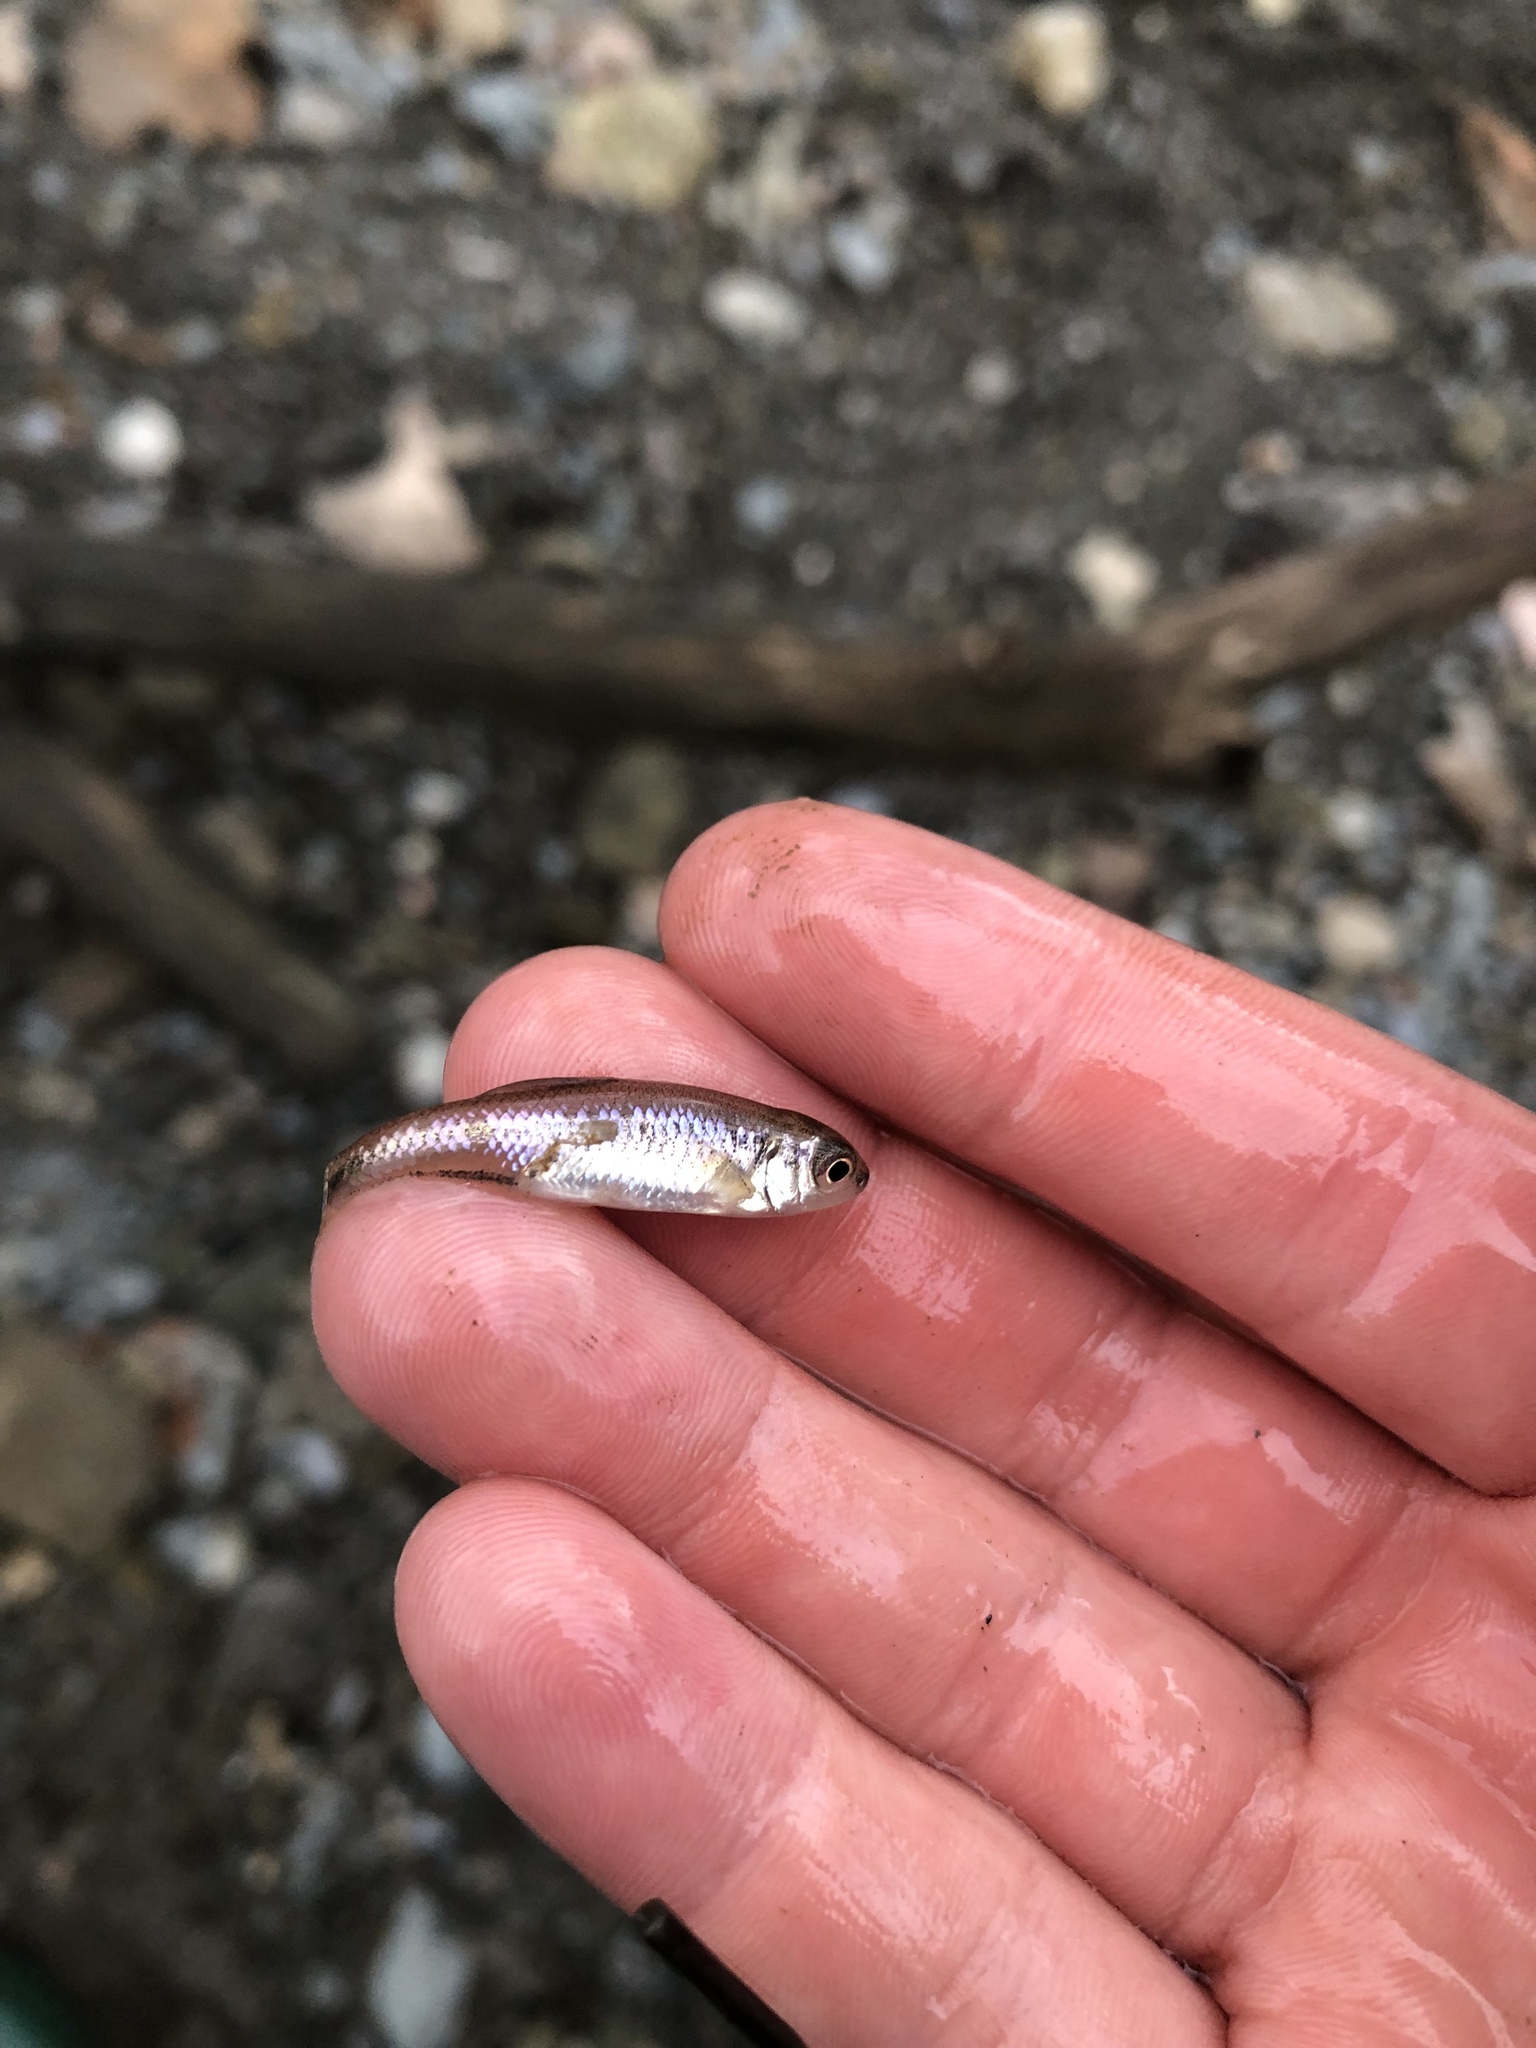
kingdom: Animalia
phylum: Chordata
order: Cypriniformes
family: Cyprinidae
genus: Luxilus
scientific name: Luxilus cornutus
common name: Common shiner
